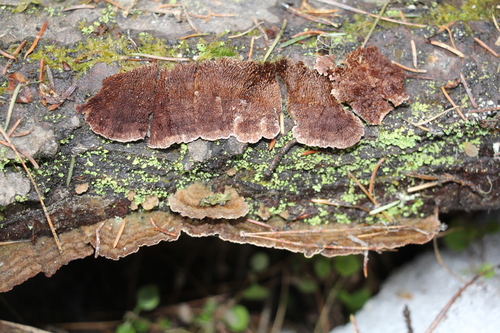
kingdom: Fungi
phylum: Basidiomycota
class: Agaricomycetes
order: Hymenochaetales
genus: Trichaptum
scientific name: Trichaptum fuscoviolaceum
